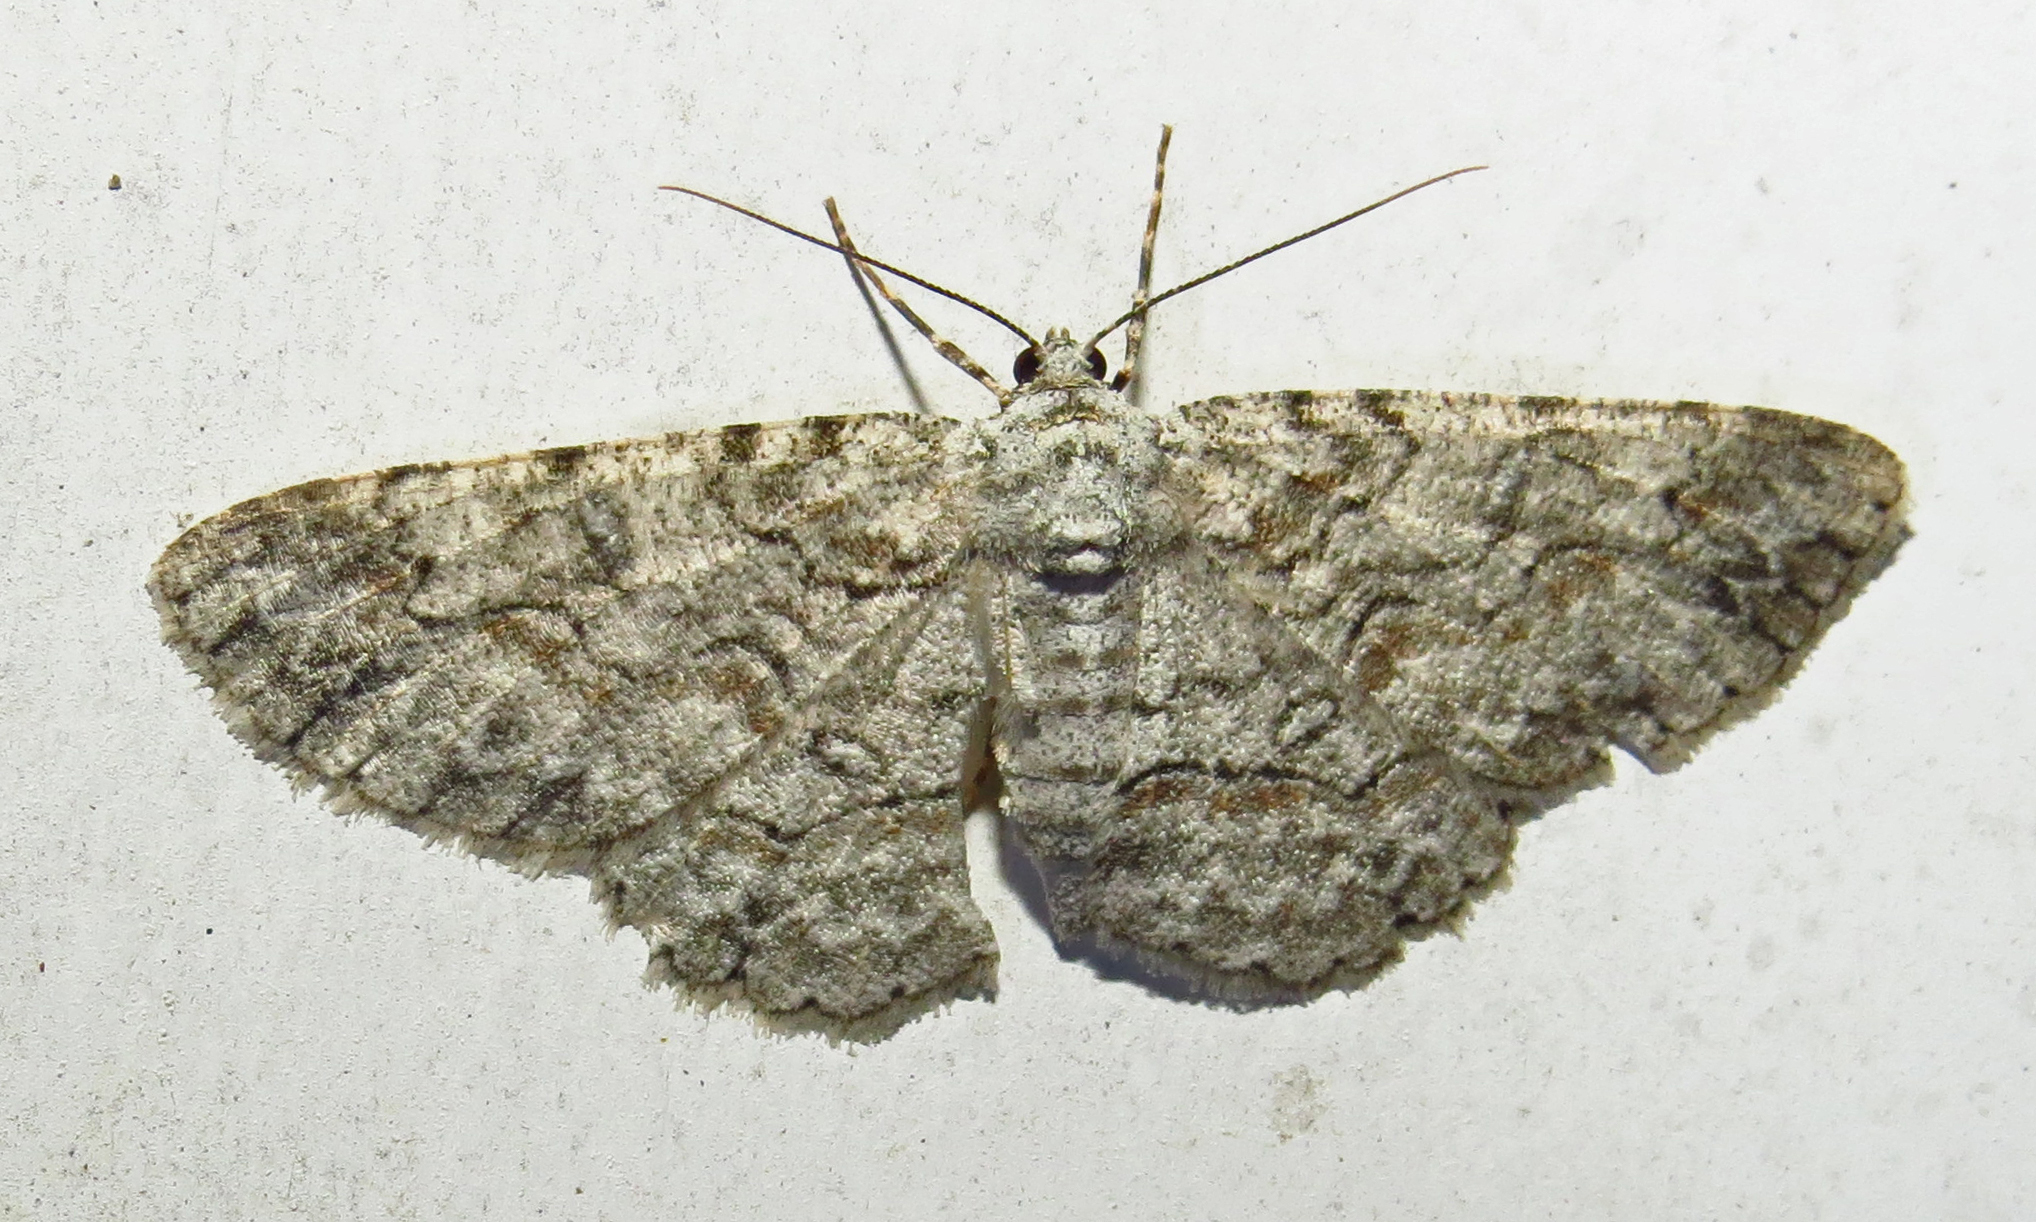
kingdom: Animalia
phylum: Arthropoda
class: Insecta
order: Lepidoptera
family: Geometridae
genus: Iridopsis
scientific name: Iridopsis defectaria
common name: Brown-shaded gray
